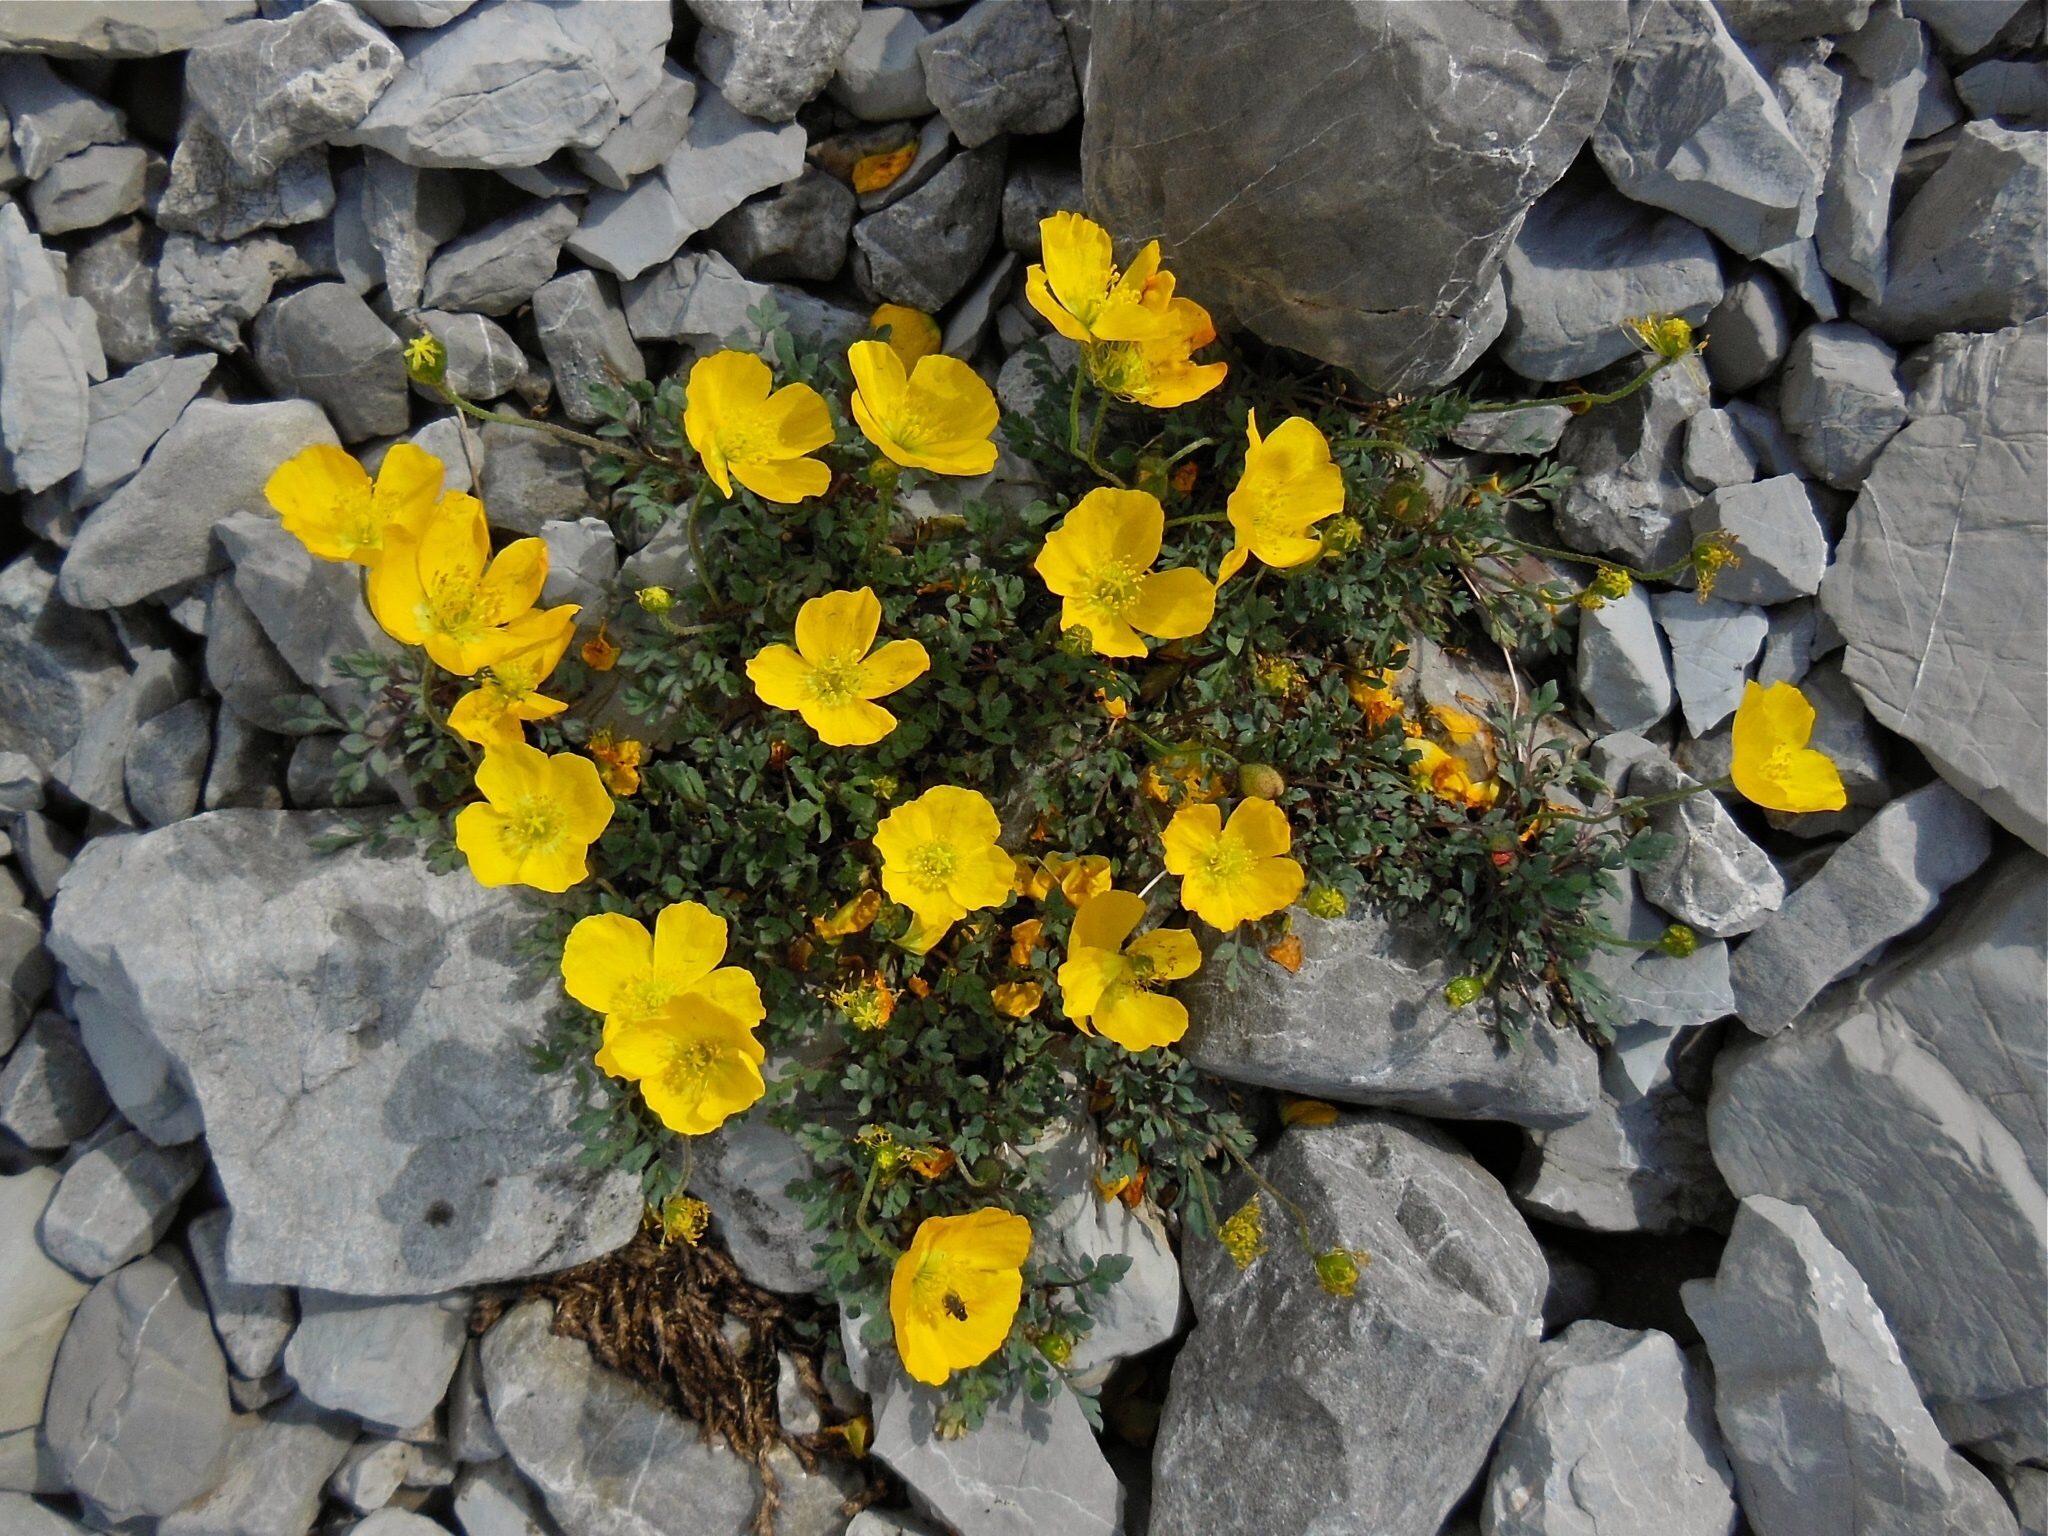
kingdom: Plantae
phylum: Tracheophyta
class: Magnoliopsida
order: Ranunculales
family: Papaveraceae
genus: Papaver
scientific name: Papaver alpinum
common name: Austrian poppy
